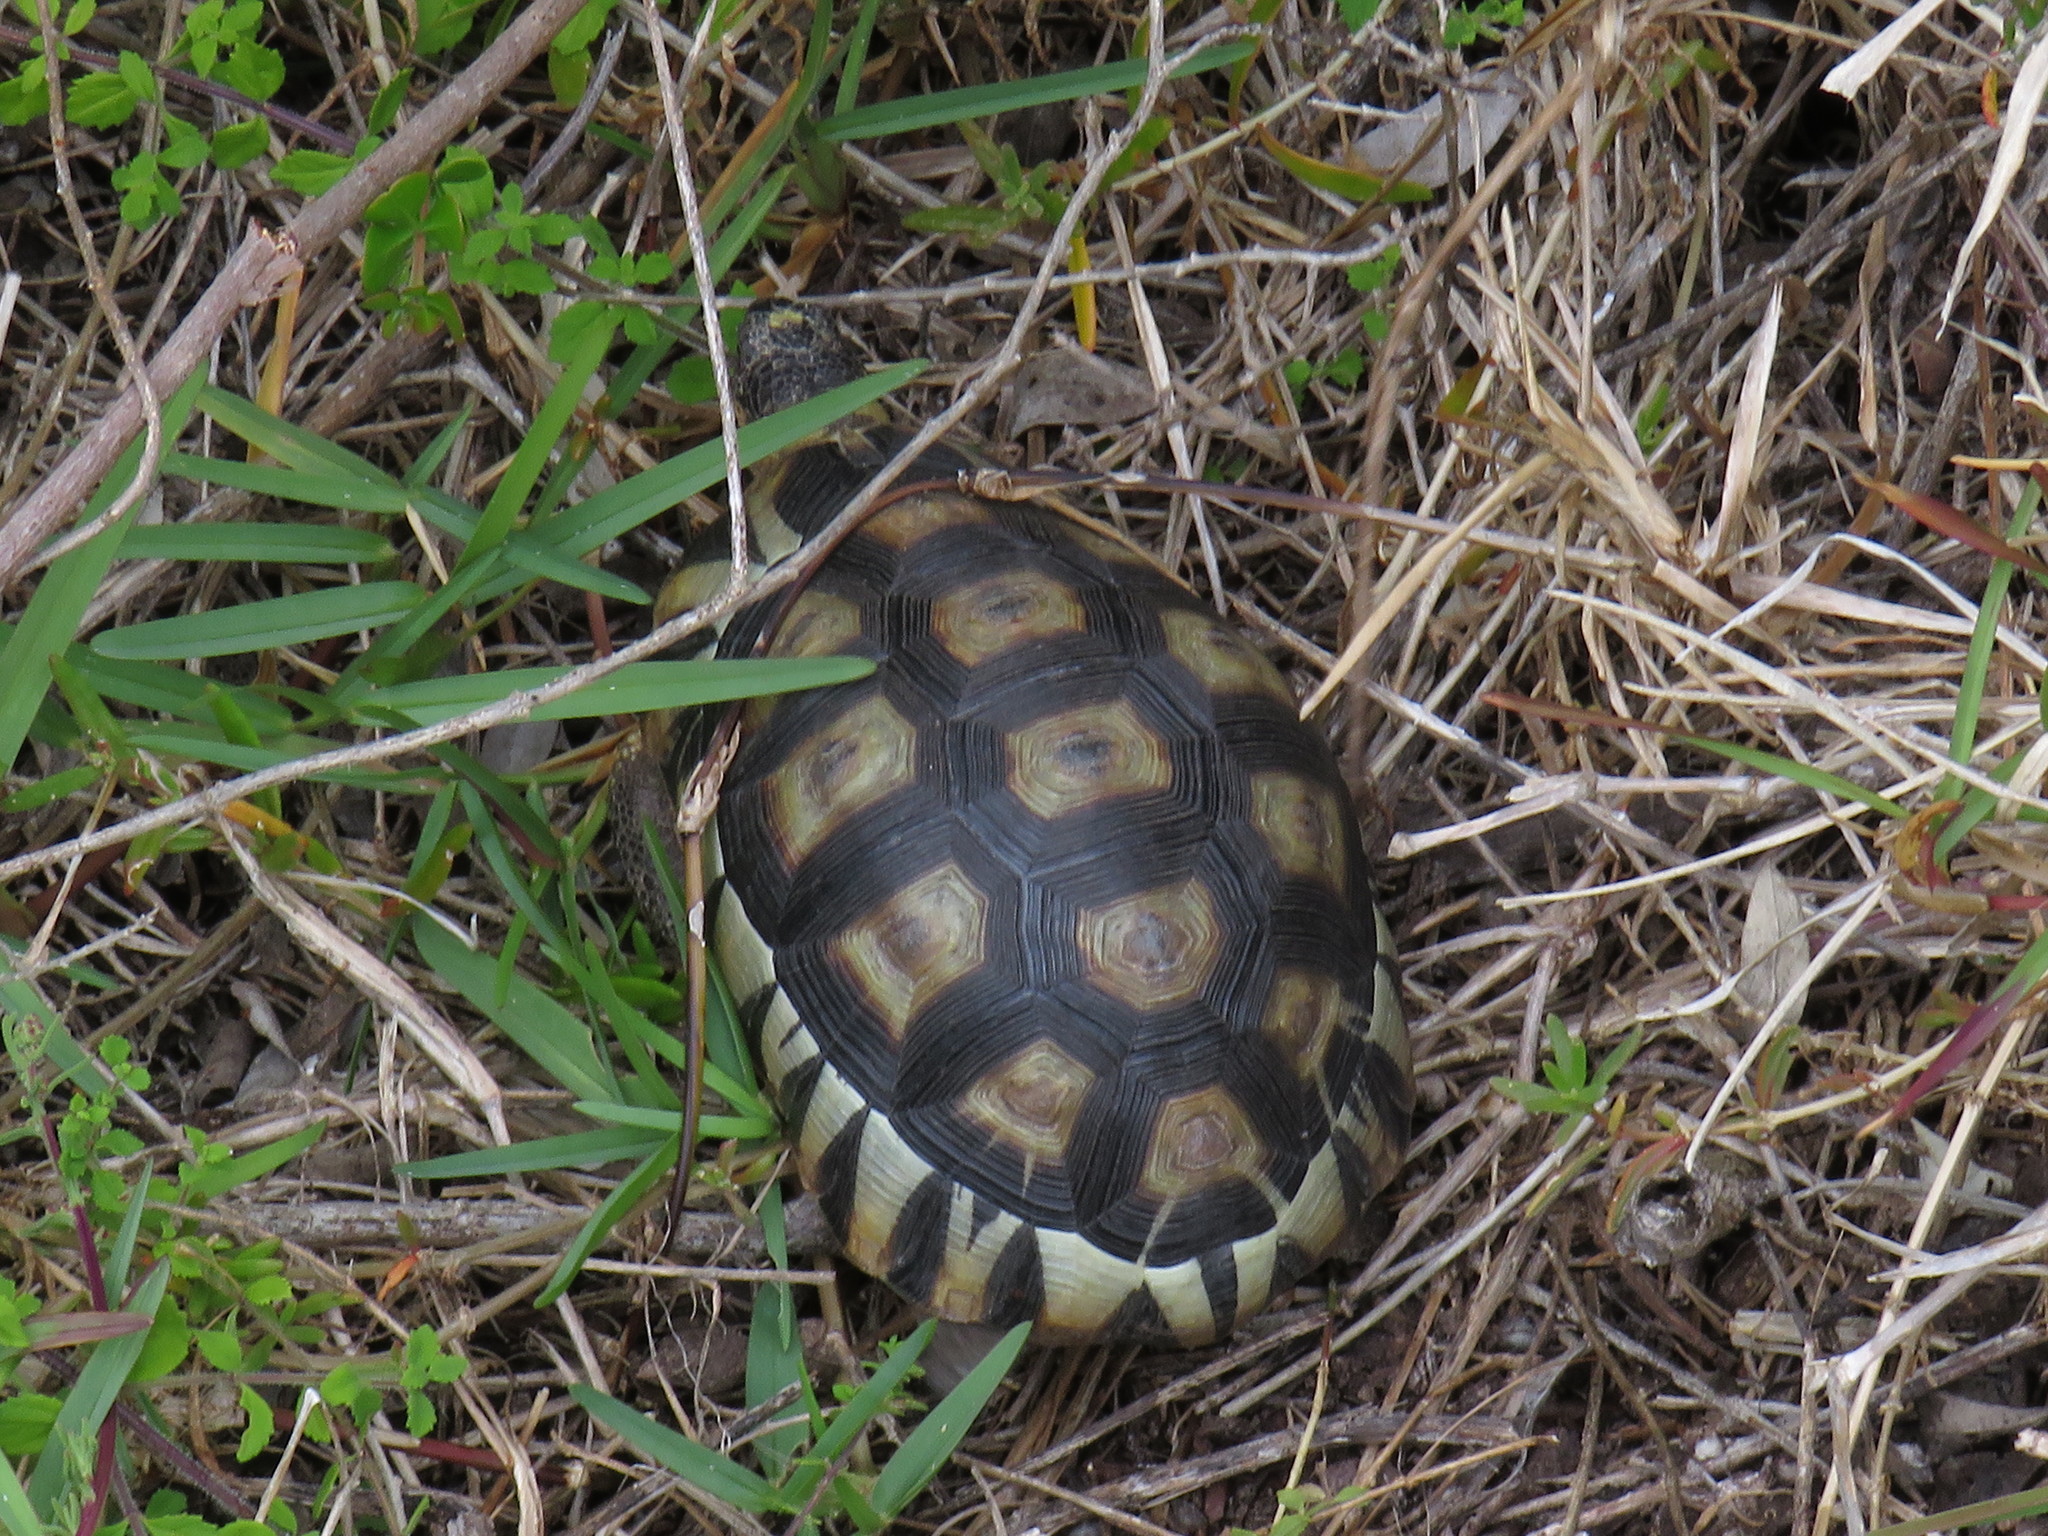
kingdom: Animalia
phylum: Chordata
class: Testudines
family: Testudinidae
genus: Chersina
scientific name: Chersina angulata
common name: South african bowsprit tortoise
